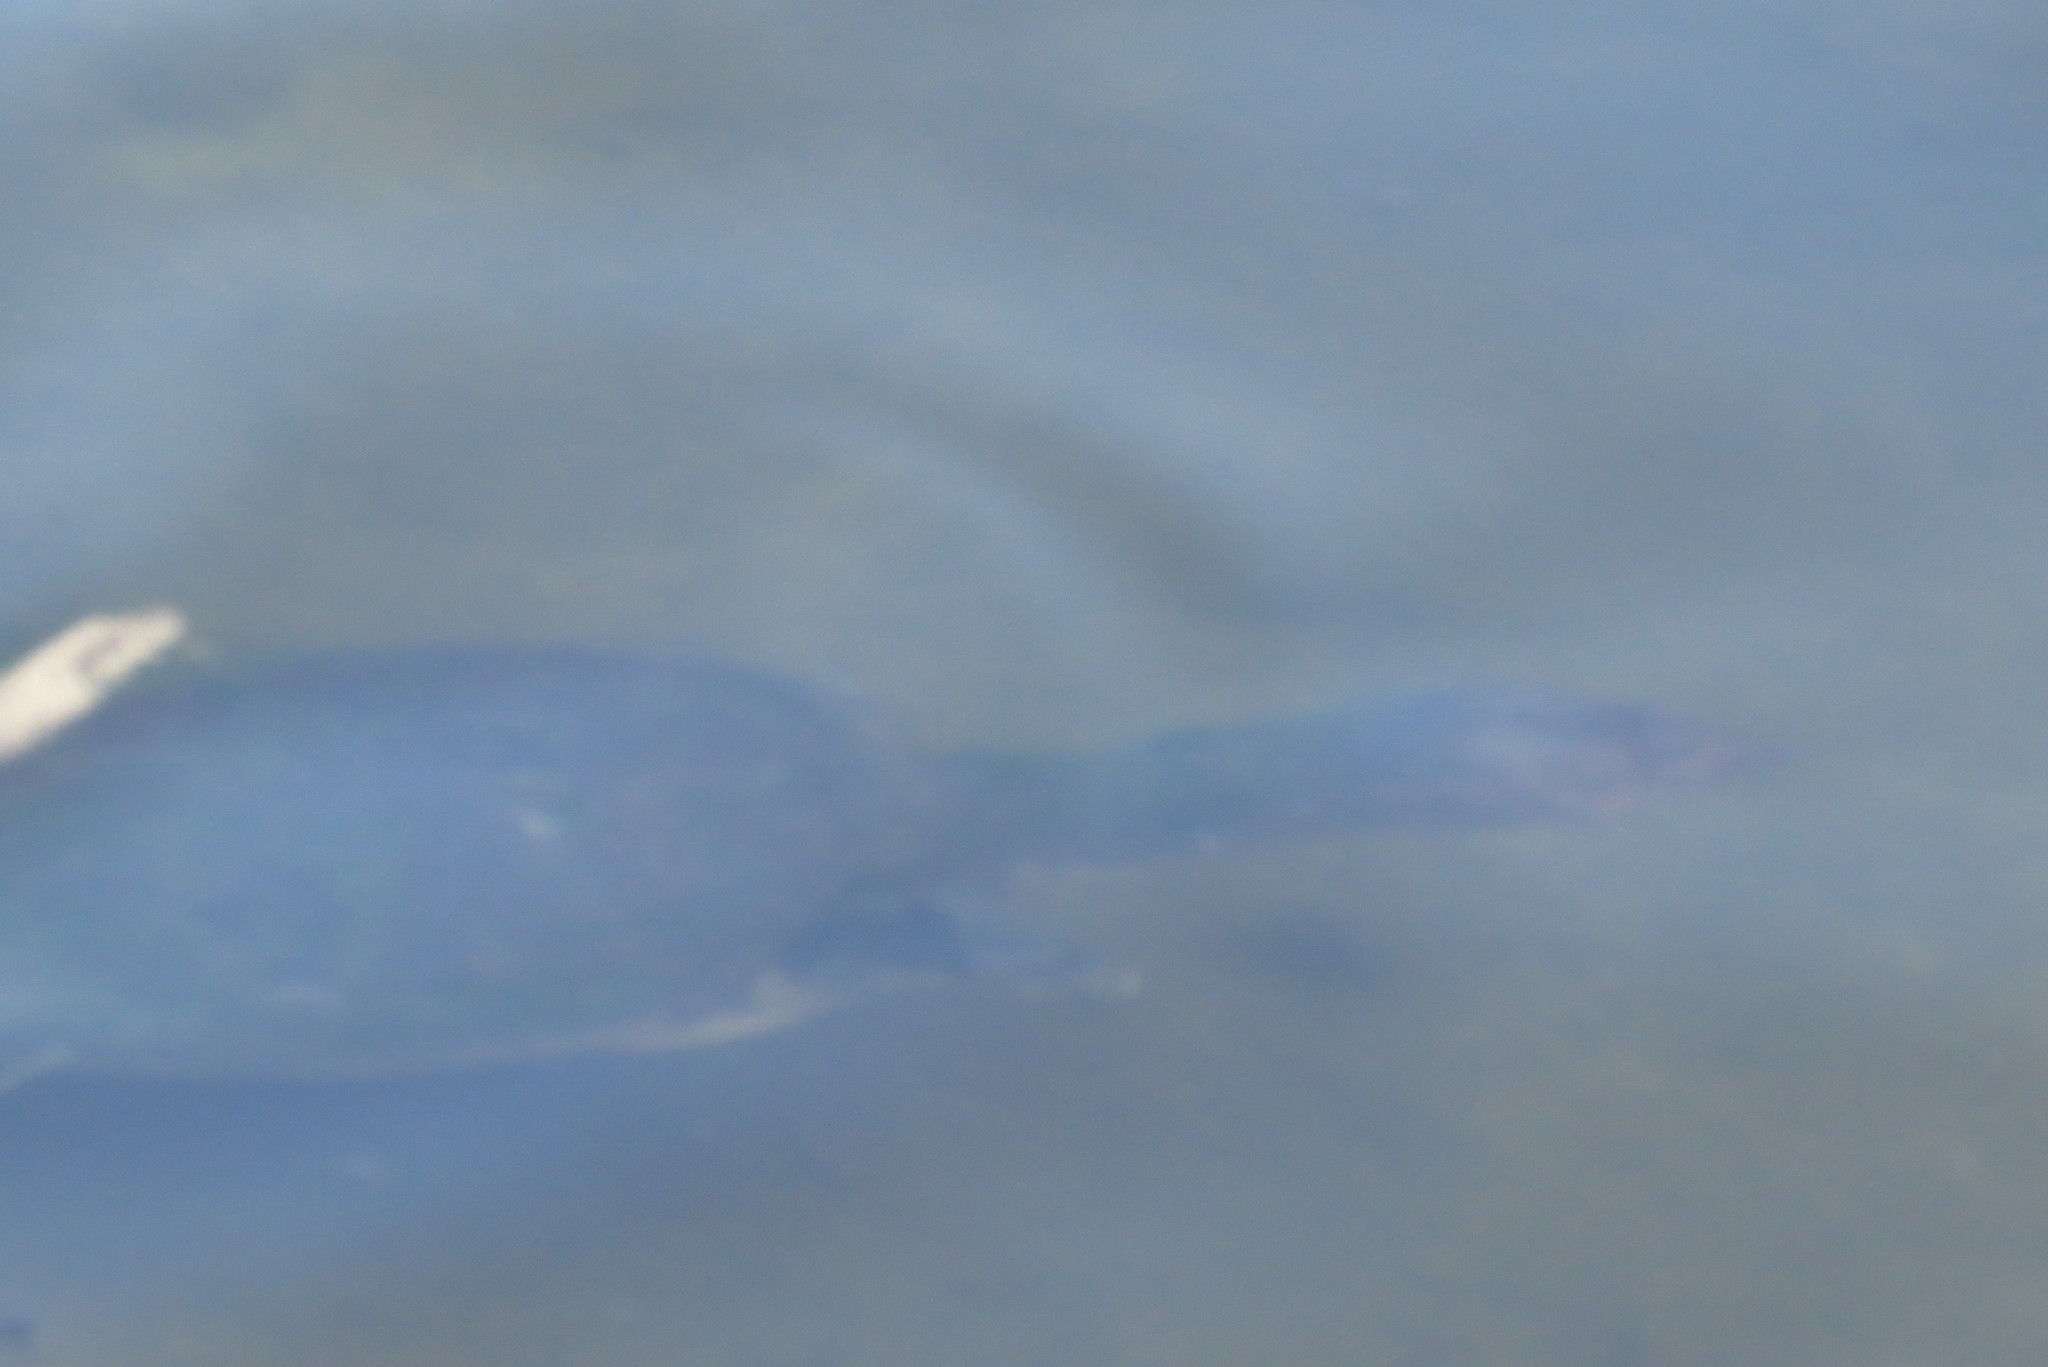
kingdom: Animalia
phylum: Chordata
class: Testudines
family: Trionychidae
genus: Apalone
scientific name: Apalone ferox
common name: Florida softshell turtle
